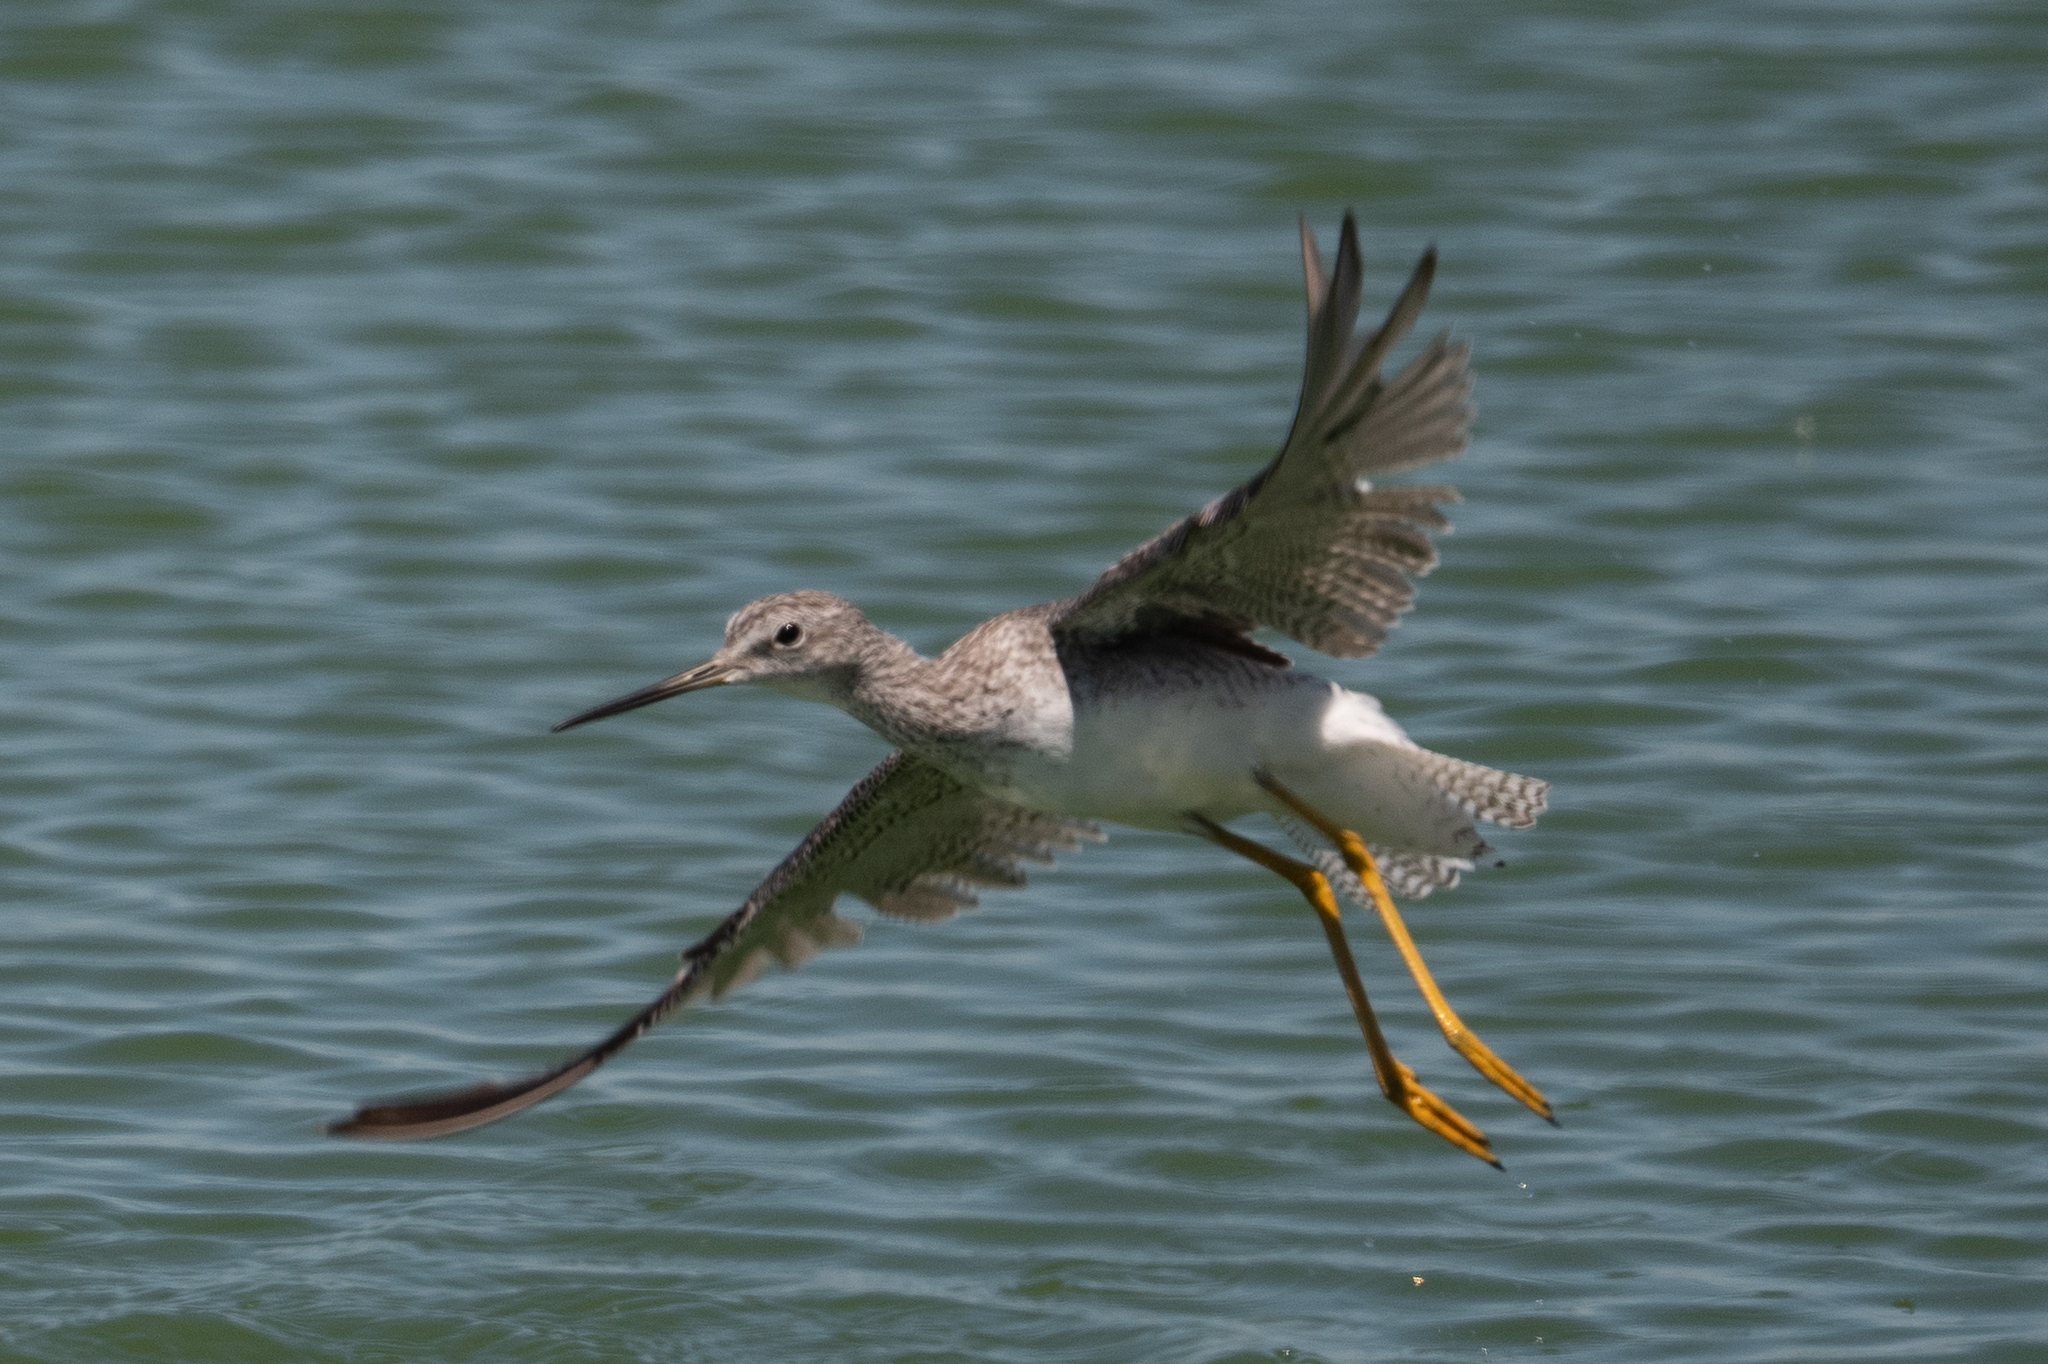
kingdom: Animalia
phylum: Chordata
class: Aves
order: Charadriiformes
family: Scolopacidae
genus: Tringa
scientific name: Tringa melanoleuca
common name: Greater yellowlegs
